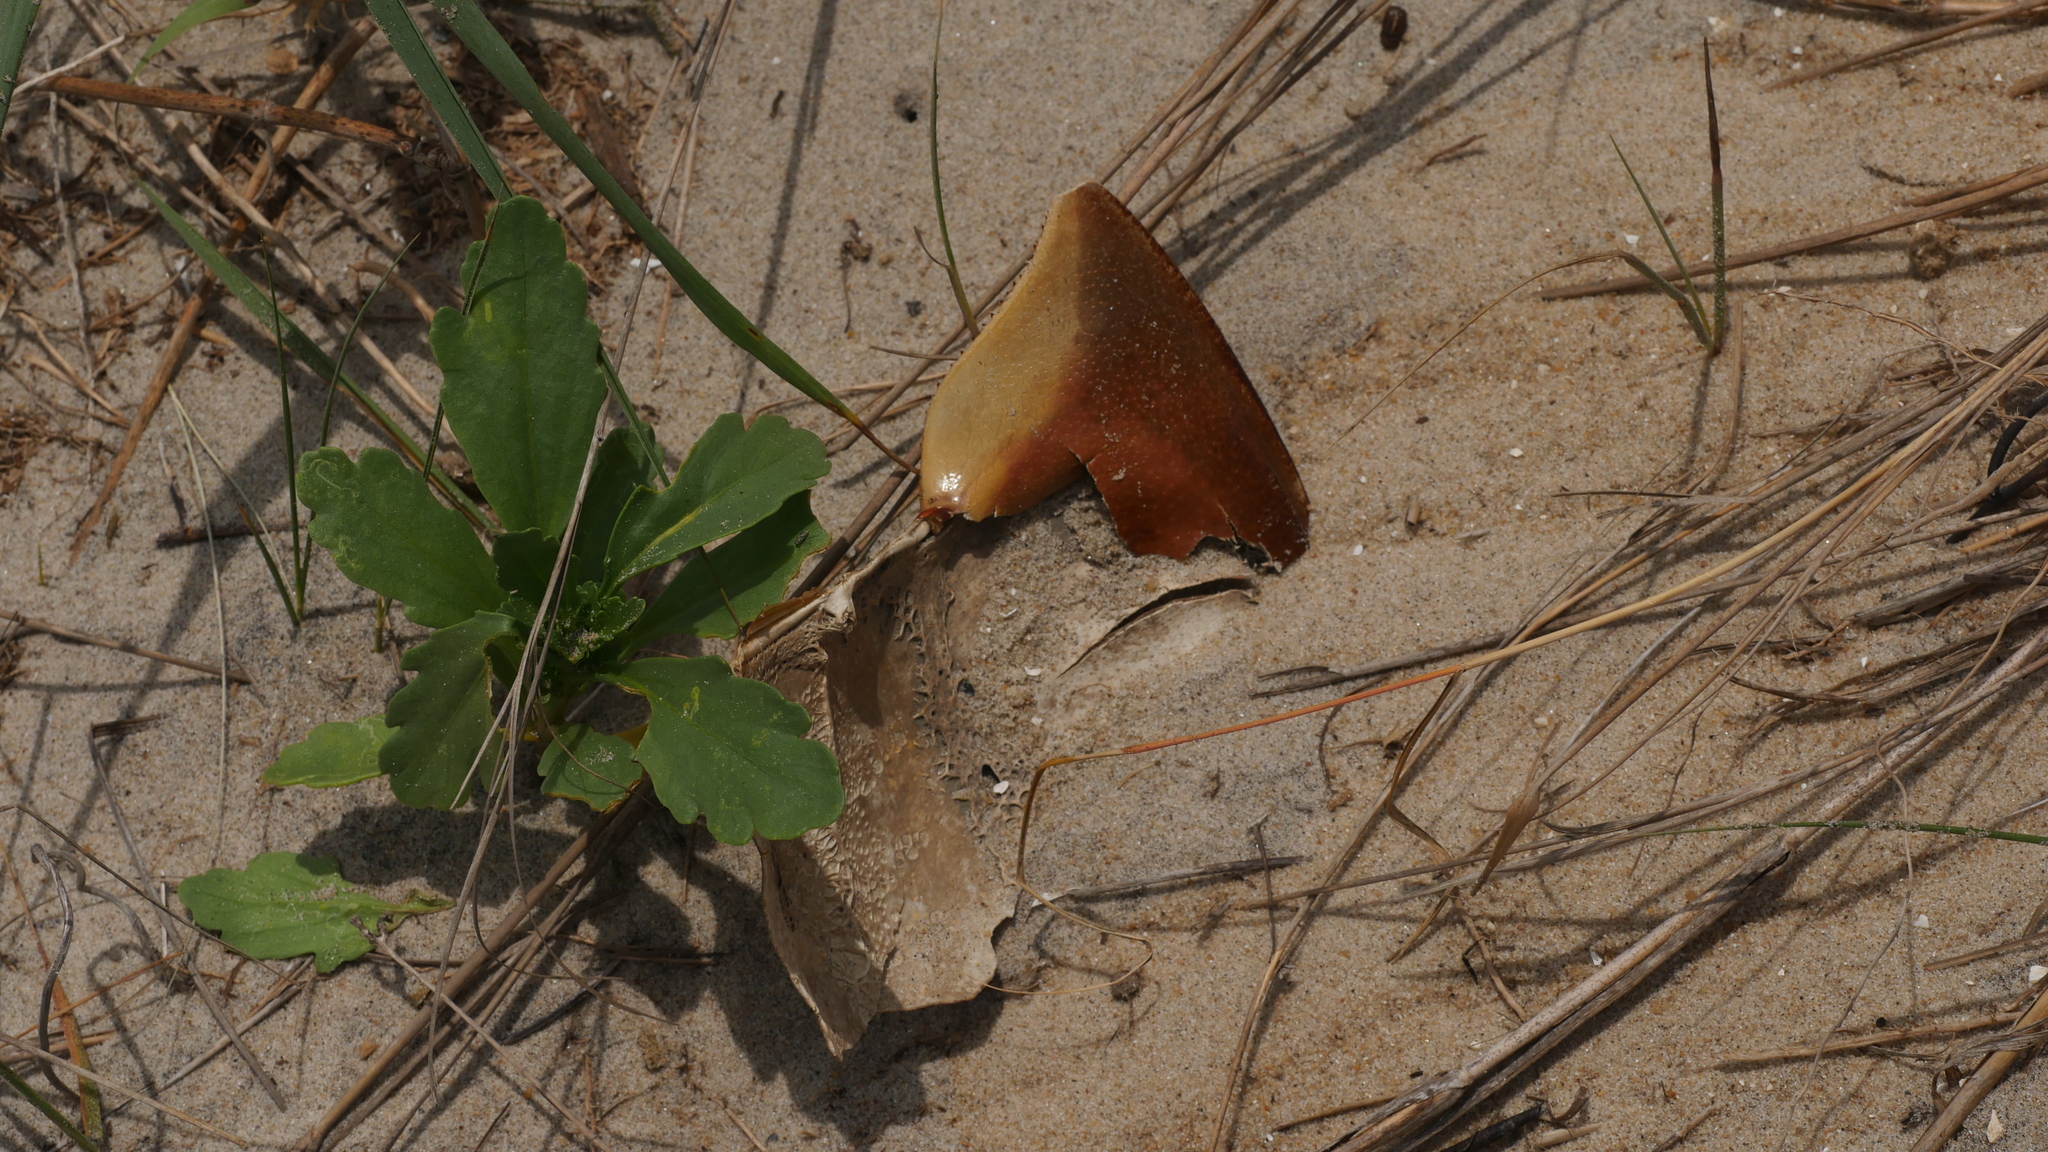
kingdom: Animalia
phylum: Arthropoda
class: Merostomata
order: Xiphosurida
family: Limulidae
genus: Limulus
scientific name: Limulus polyphemus
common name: Horseshoe crab
